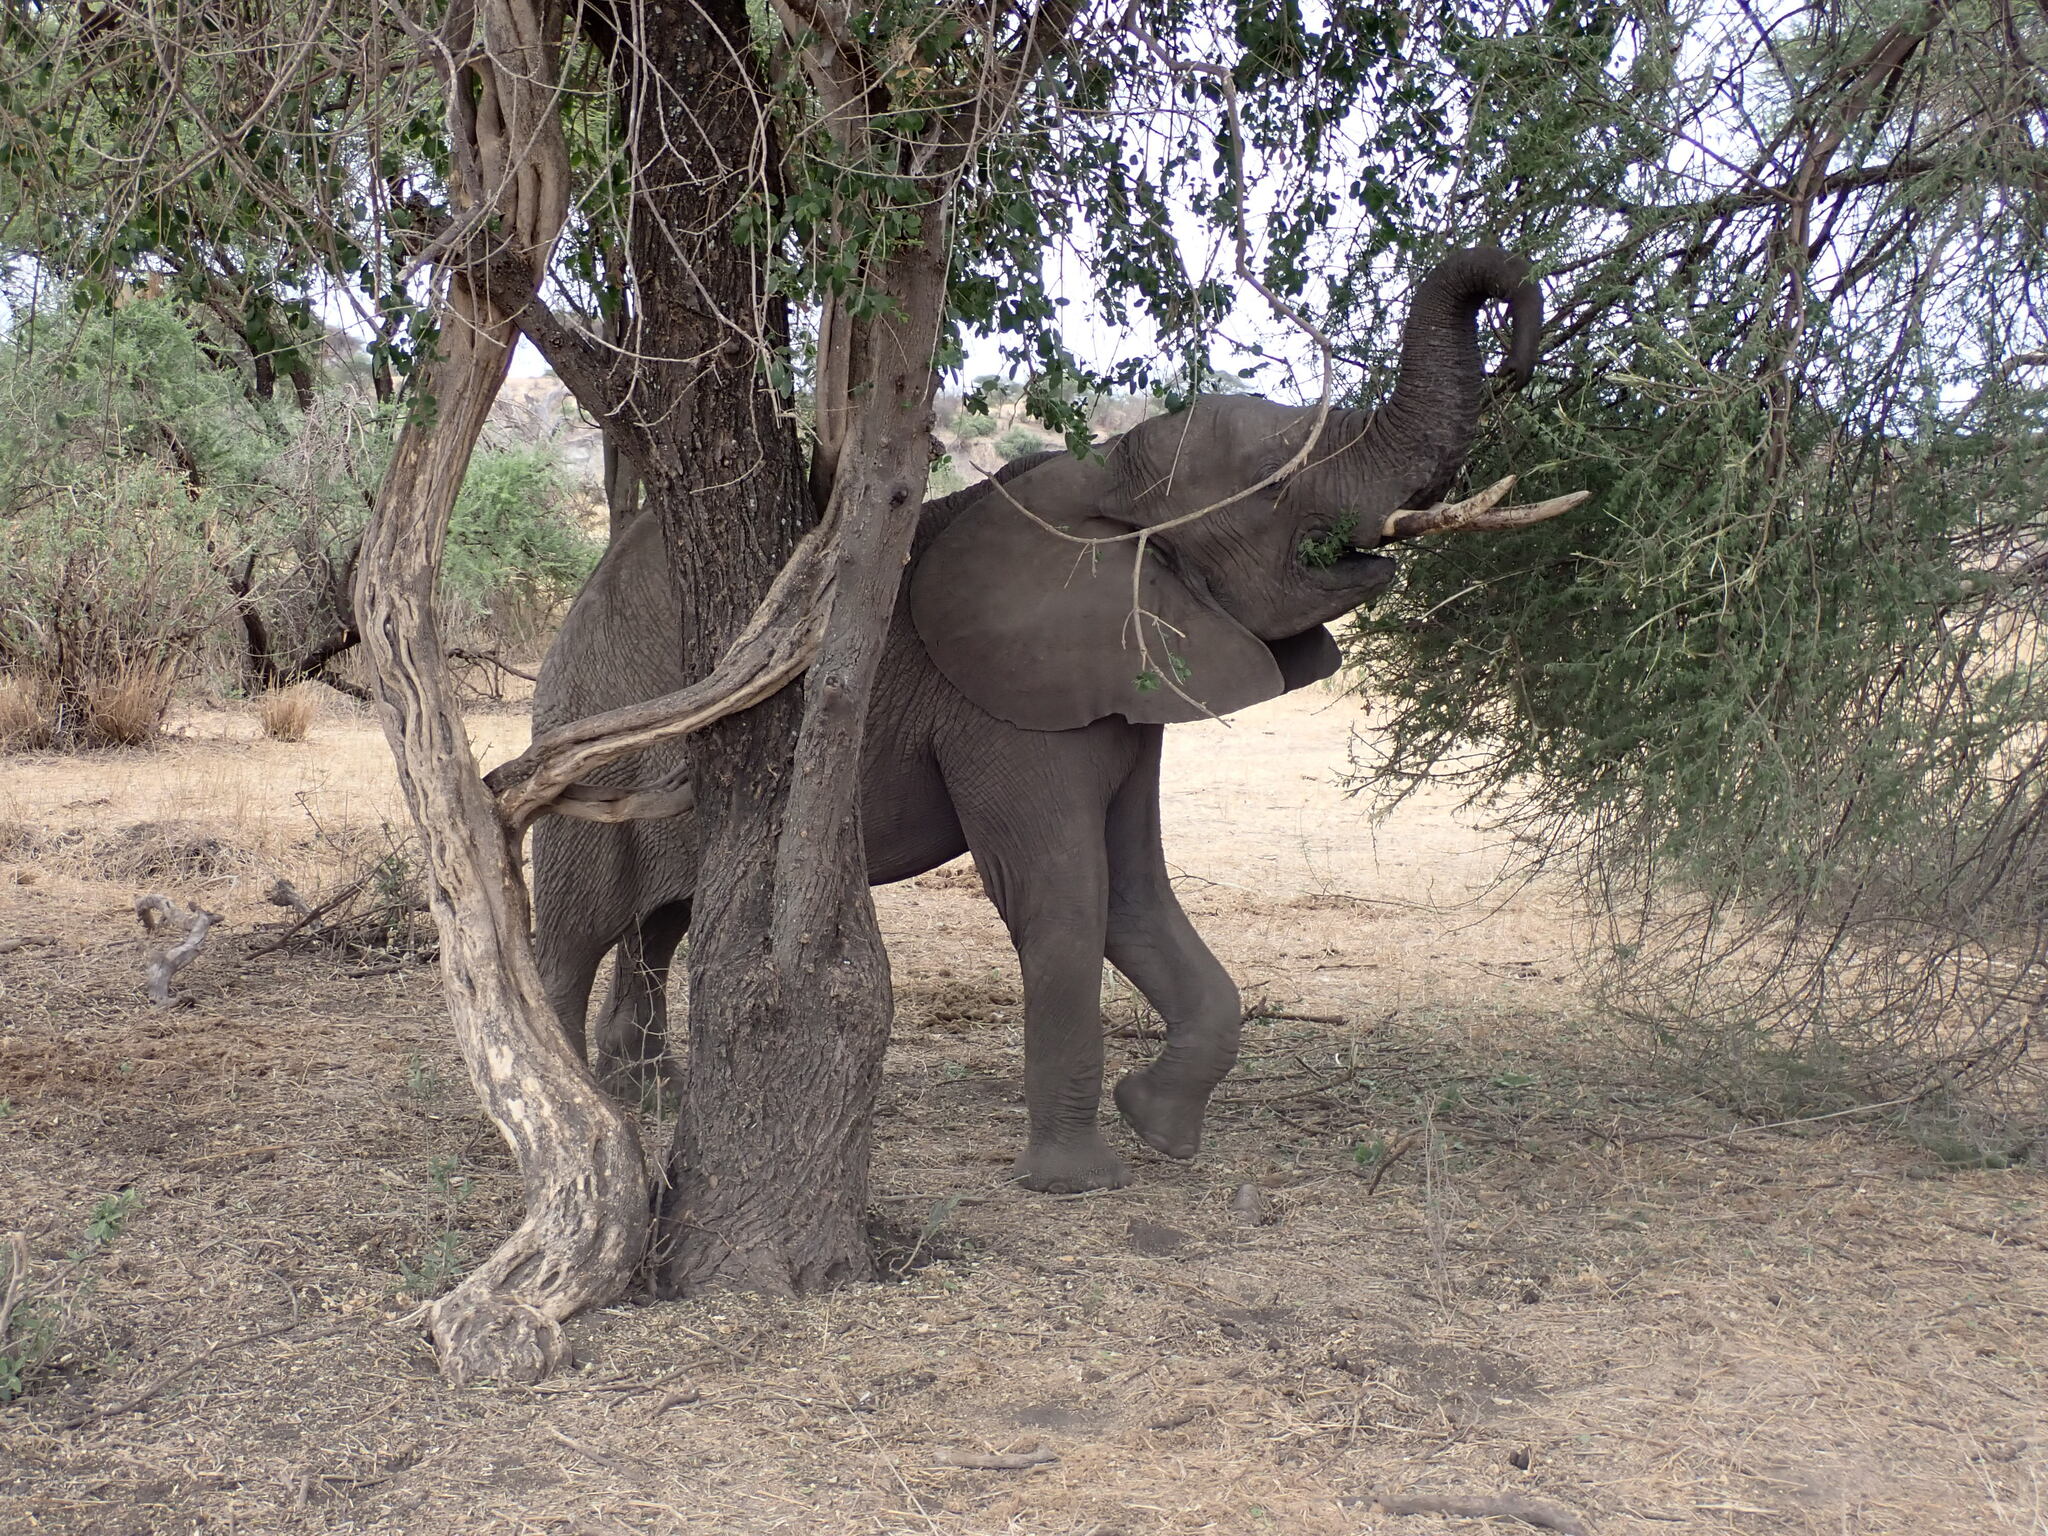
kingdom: Animalia
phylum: Chordata
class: Mammalia
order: Proboscidea
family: Elephantidae
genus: Loxodonta
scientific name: Loxodonta africana
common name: African elephant
